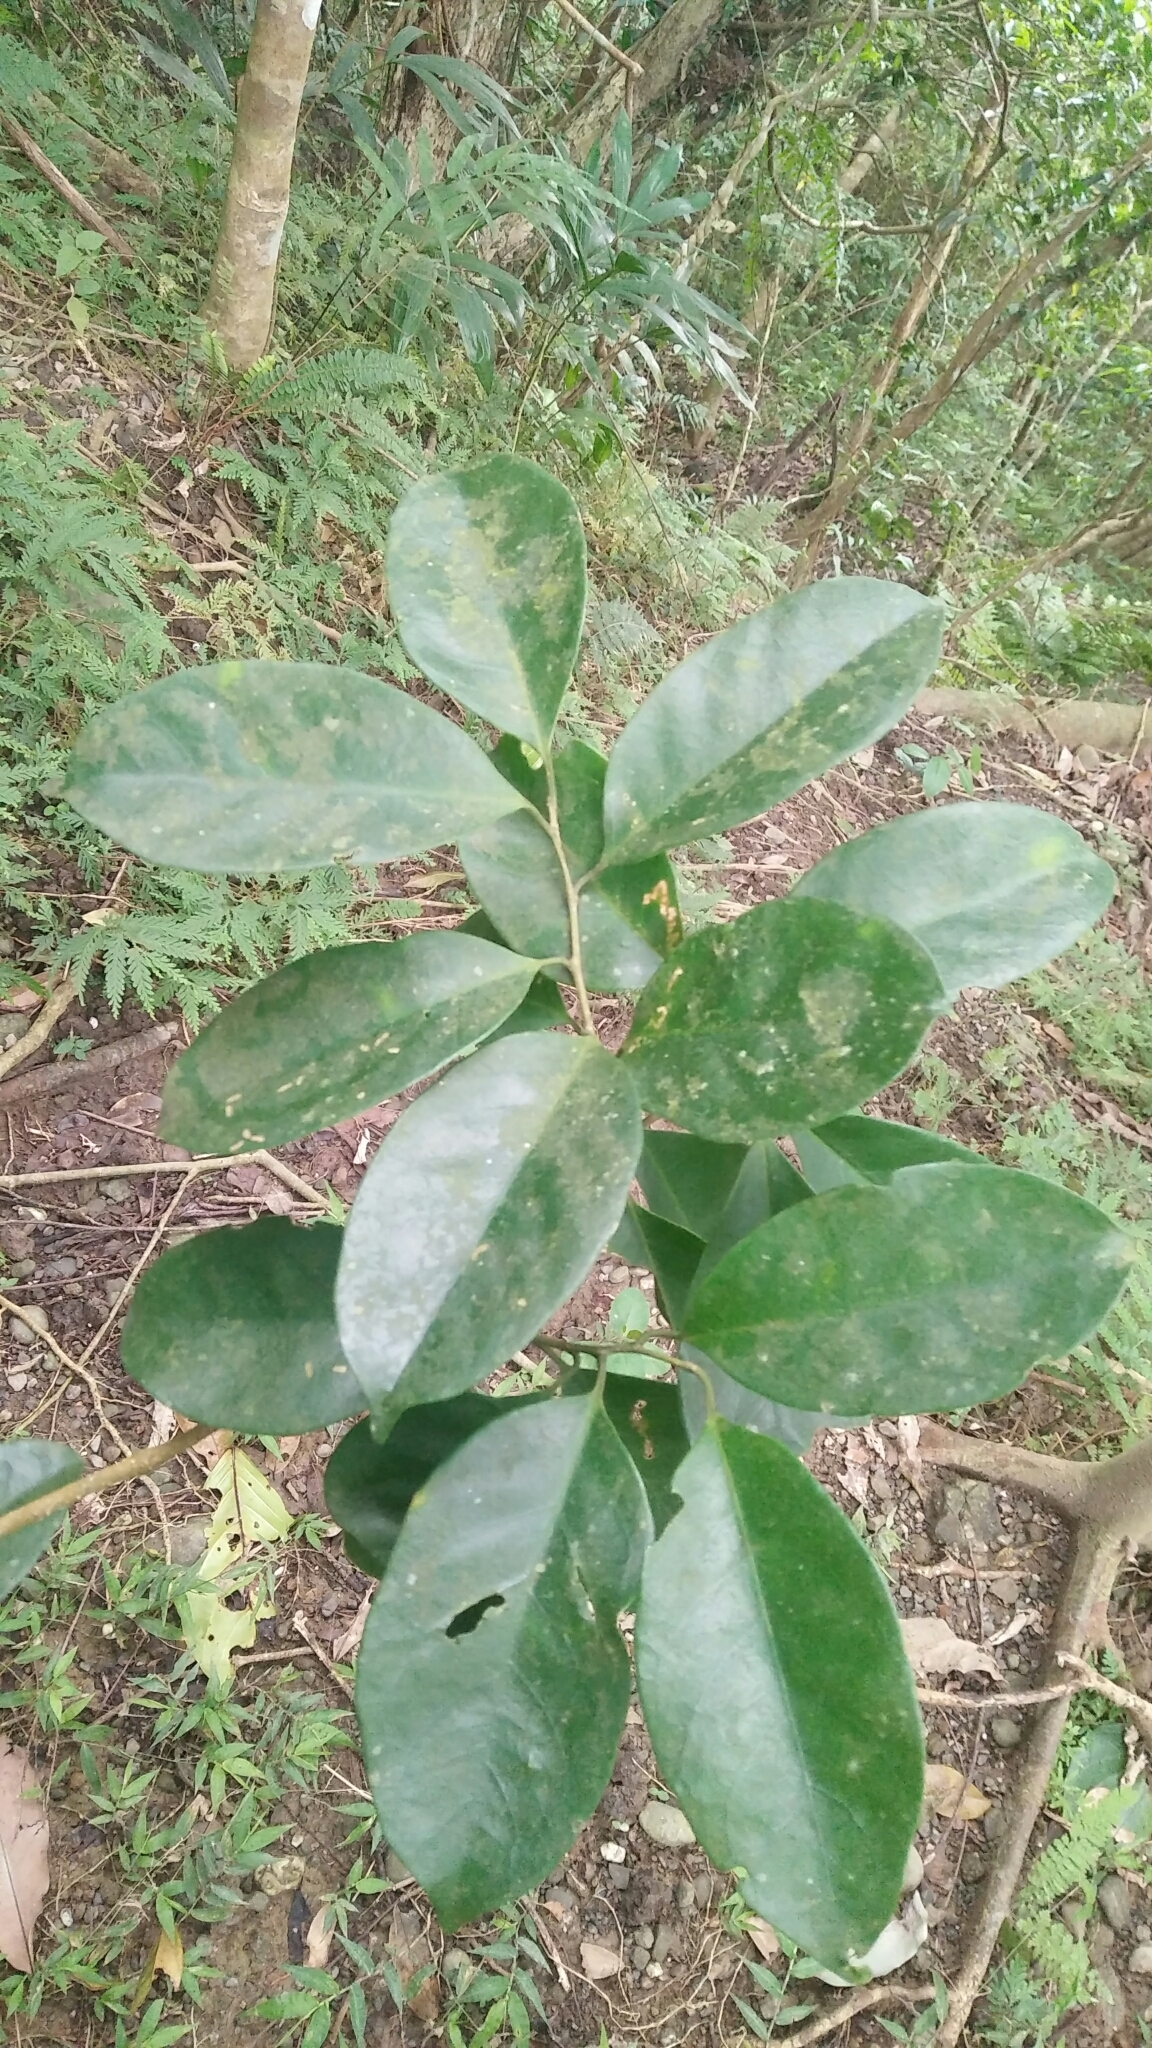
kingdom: Plantae
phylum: Tracheophyta
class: Magnoliopsida
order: Solanales
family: Convolvulaceae
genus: Erycibe
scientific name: Erycibe henryi
